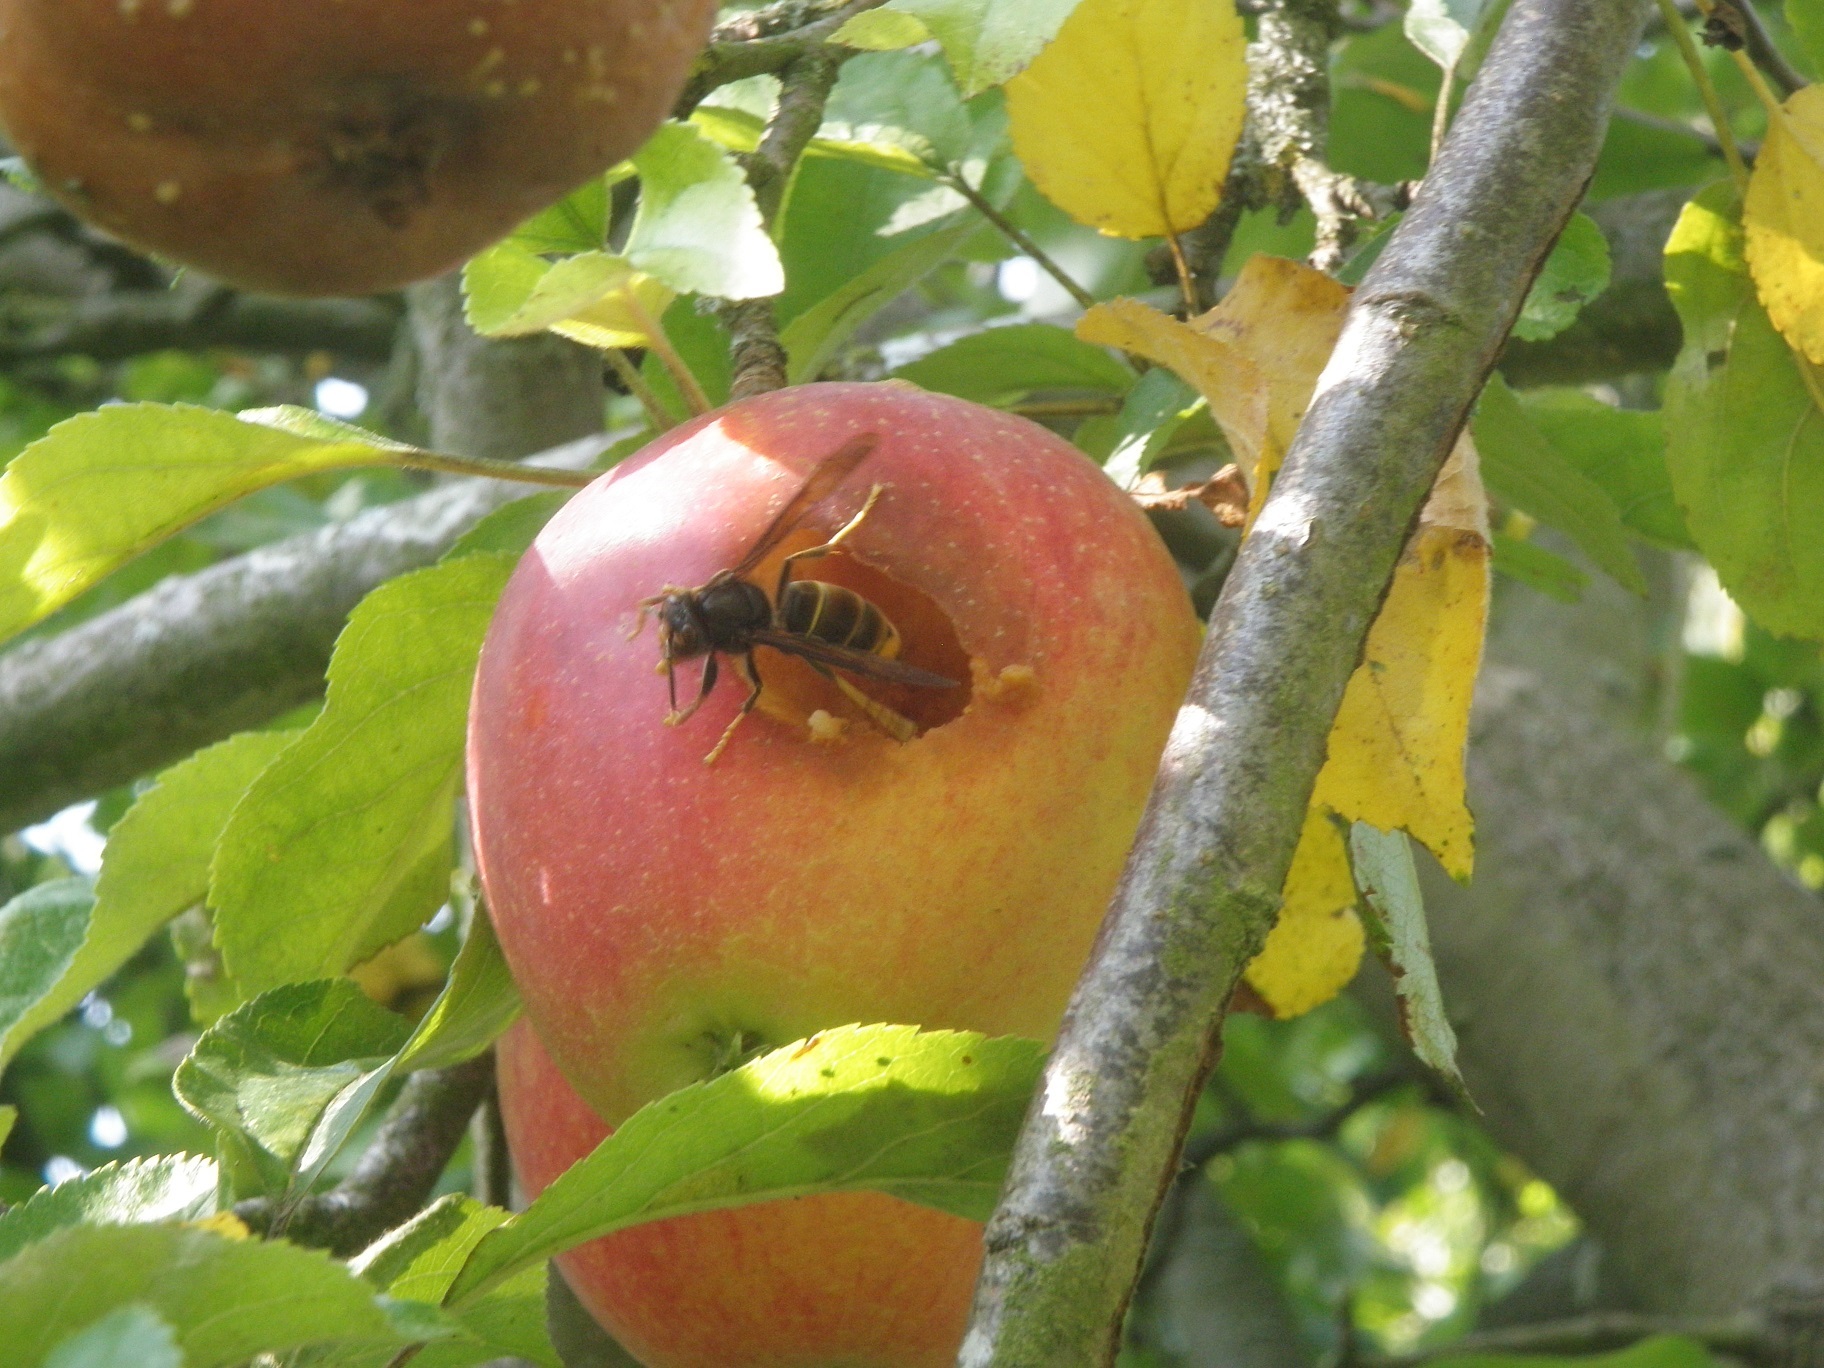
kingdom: Animalia
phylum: Arthropoda
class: Insecta
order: Hymenoptera
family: Vespidae
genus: Vespa
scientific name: Vespa velutina
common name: Asian hornet
